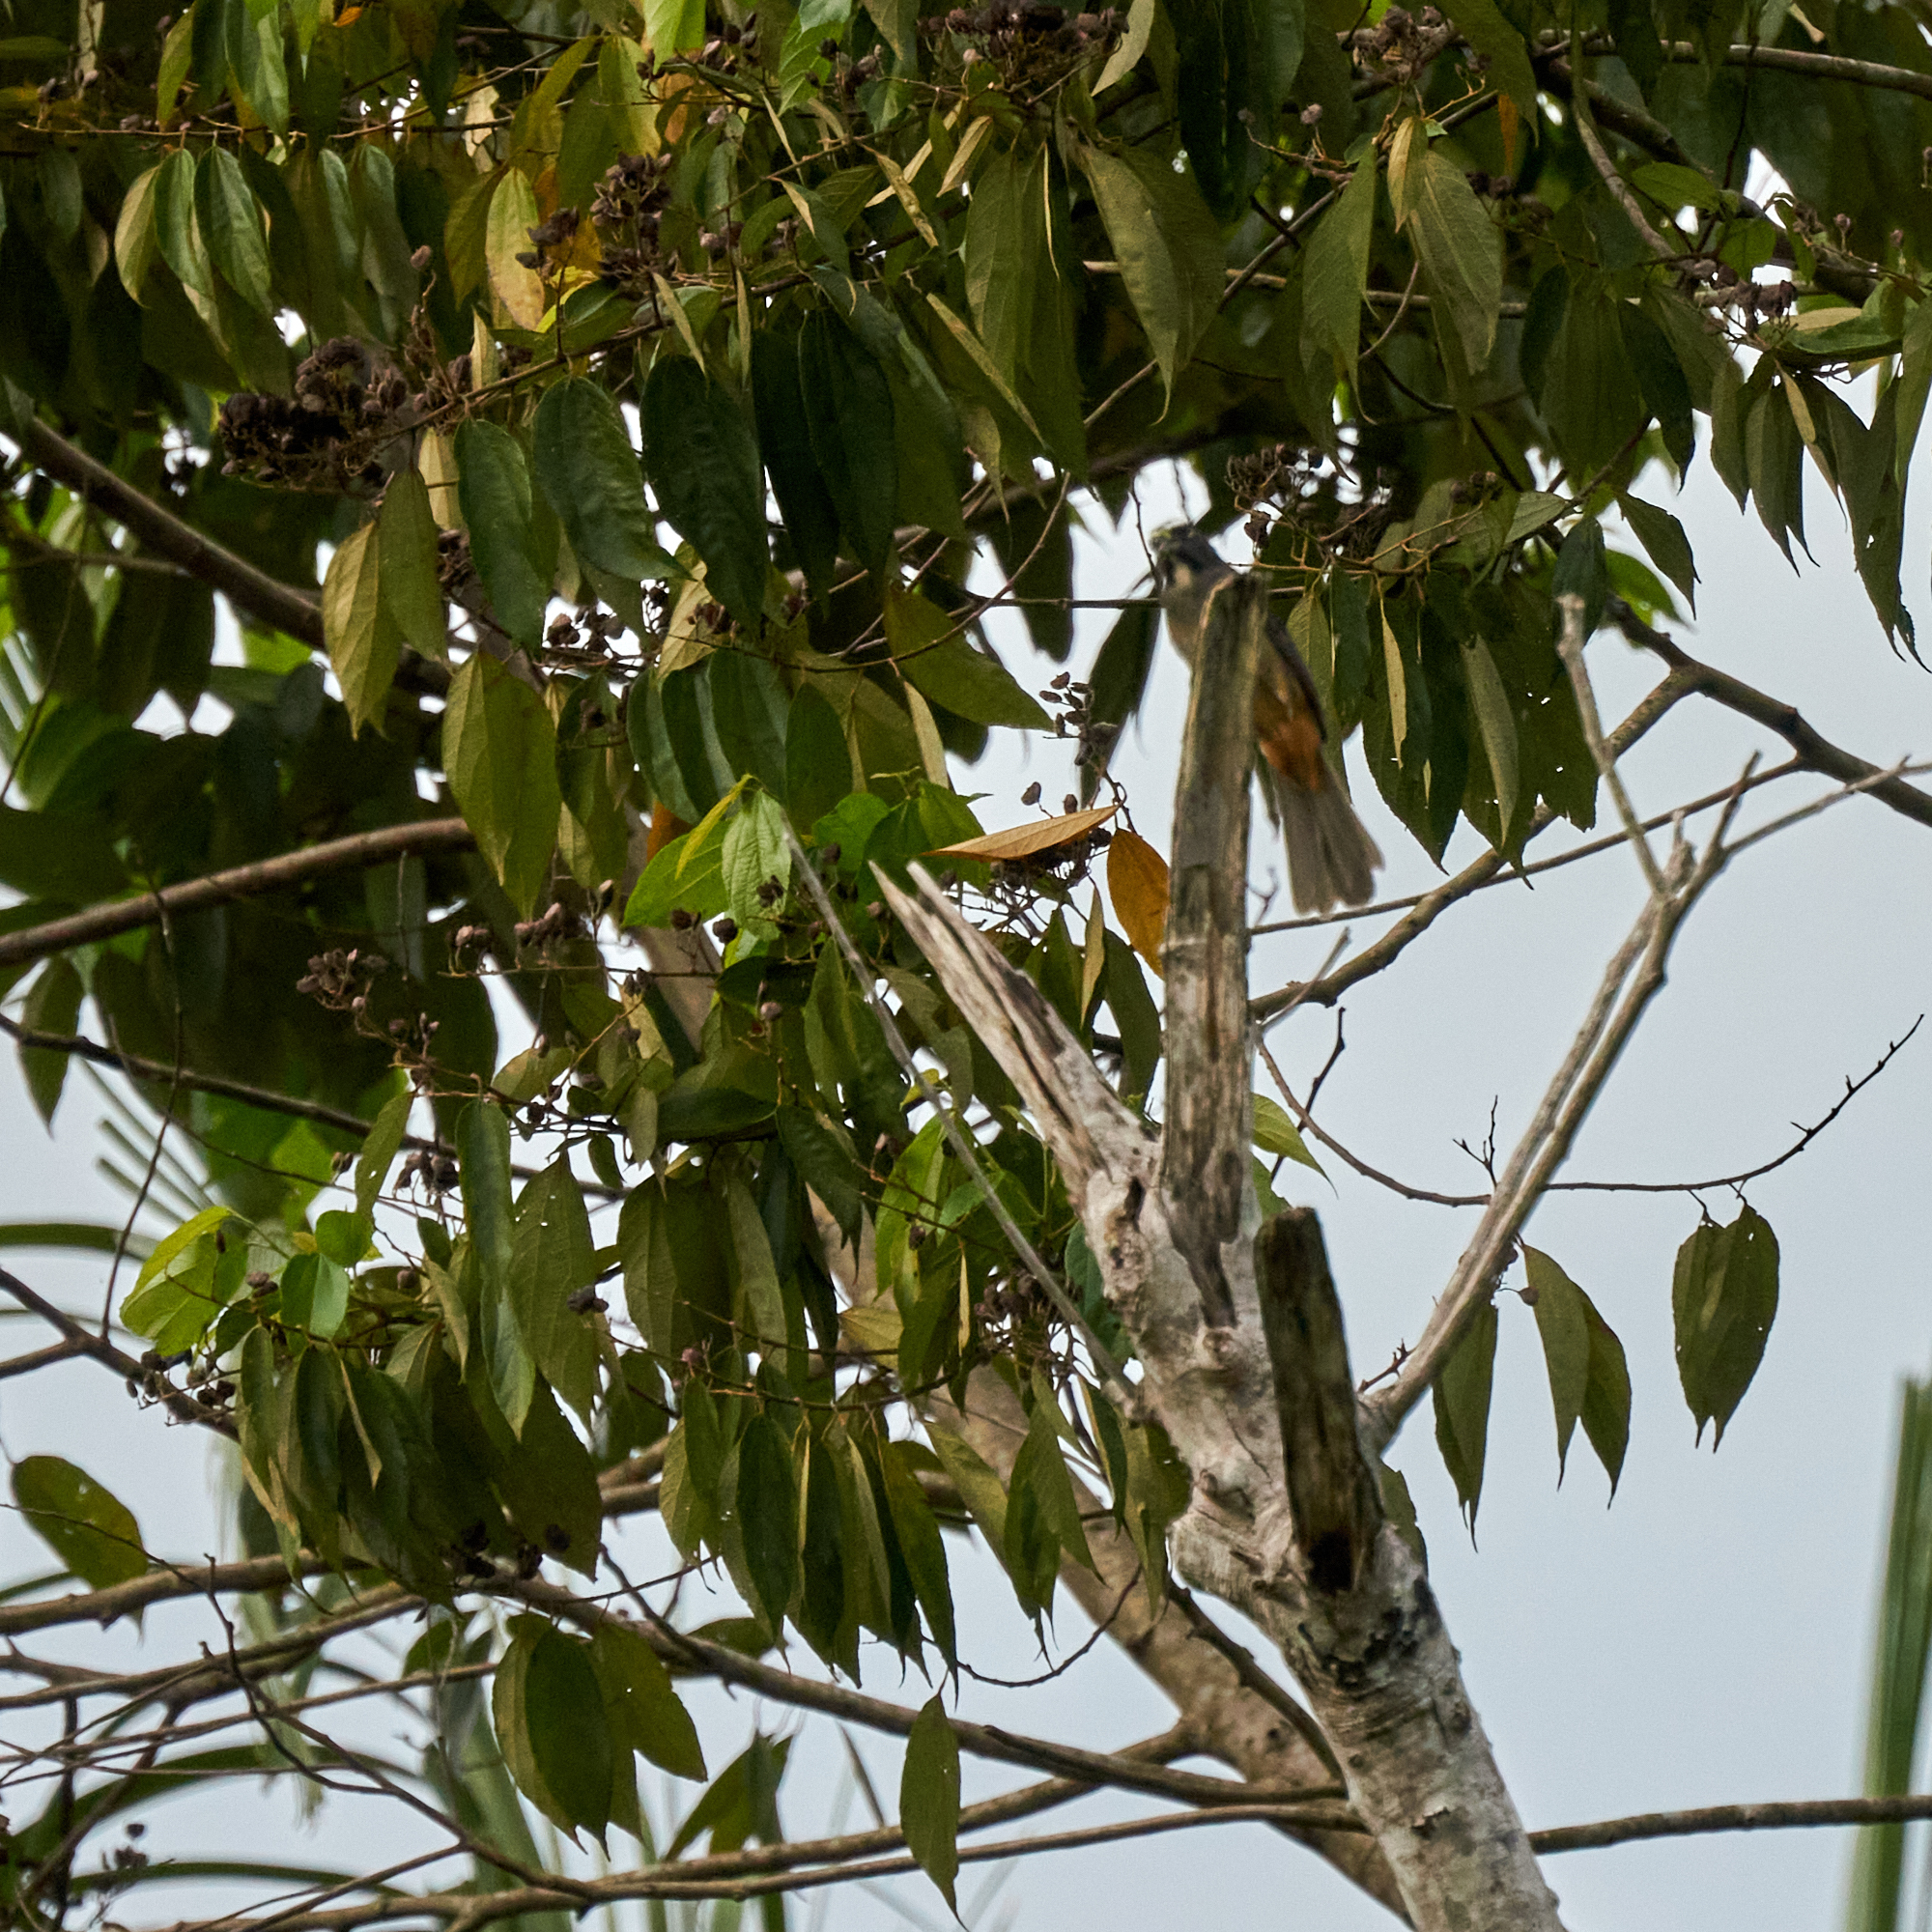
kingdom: Animalia
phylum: Chordata
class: Aves
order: Passeriformes
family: Thraupidae
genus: Saltator
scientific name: Saltator grandis
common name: Cinnamon-bellied saltator
